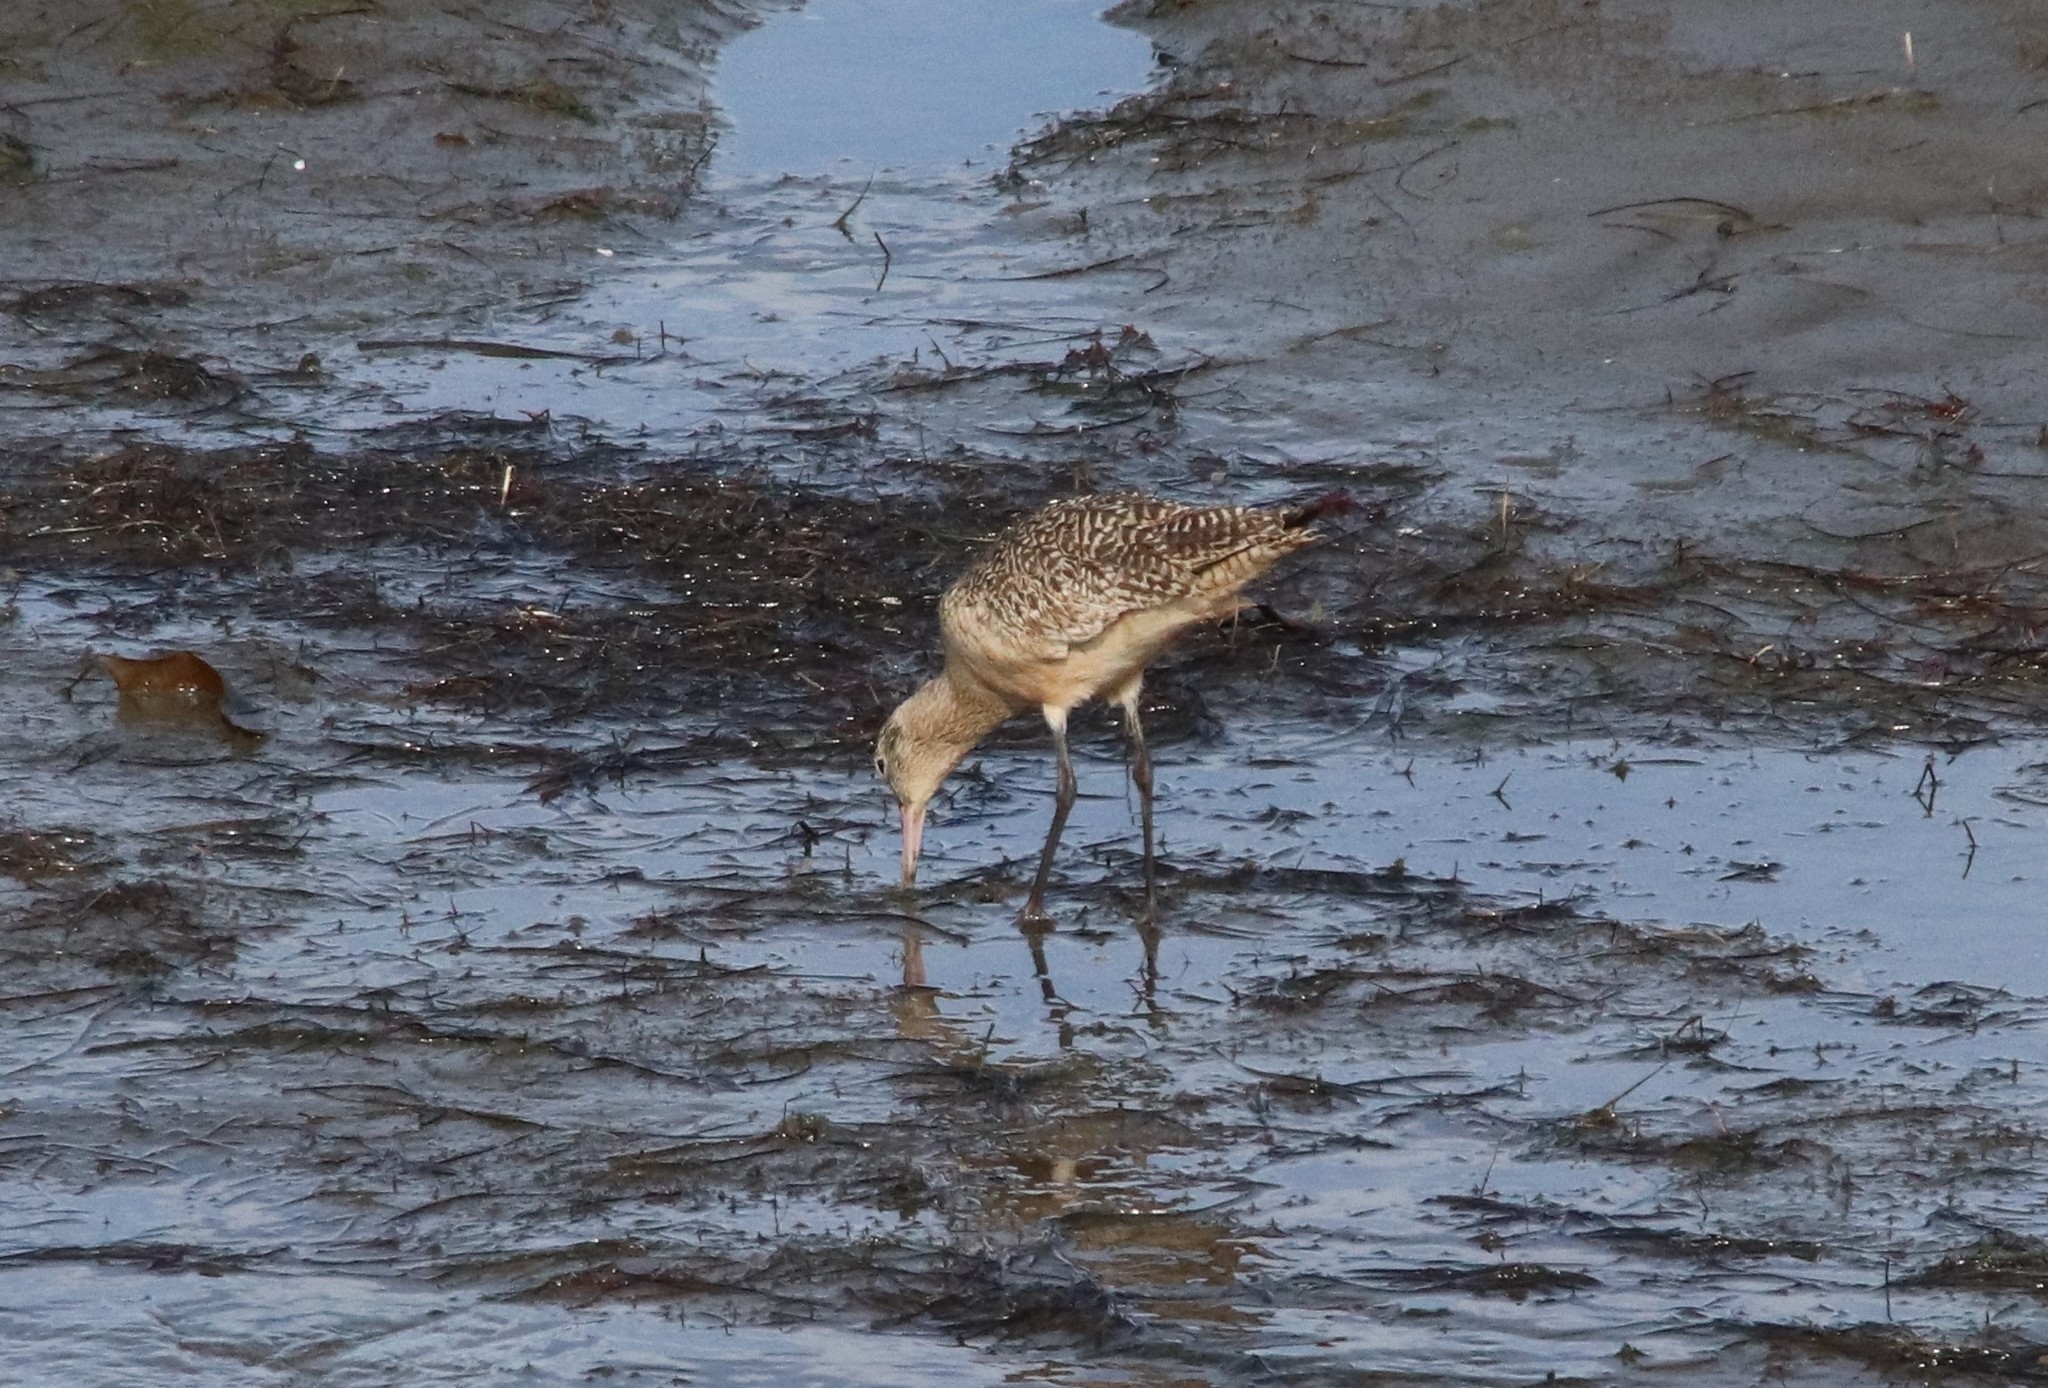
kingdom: Animalia
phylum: Chordata
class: Aves
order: Charadriiformes
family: Scolopacidae
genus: Limosa
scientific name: Limosa fedoa
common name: Marbled godwit
